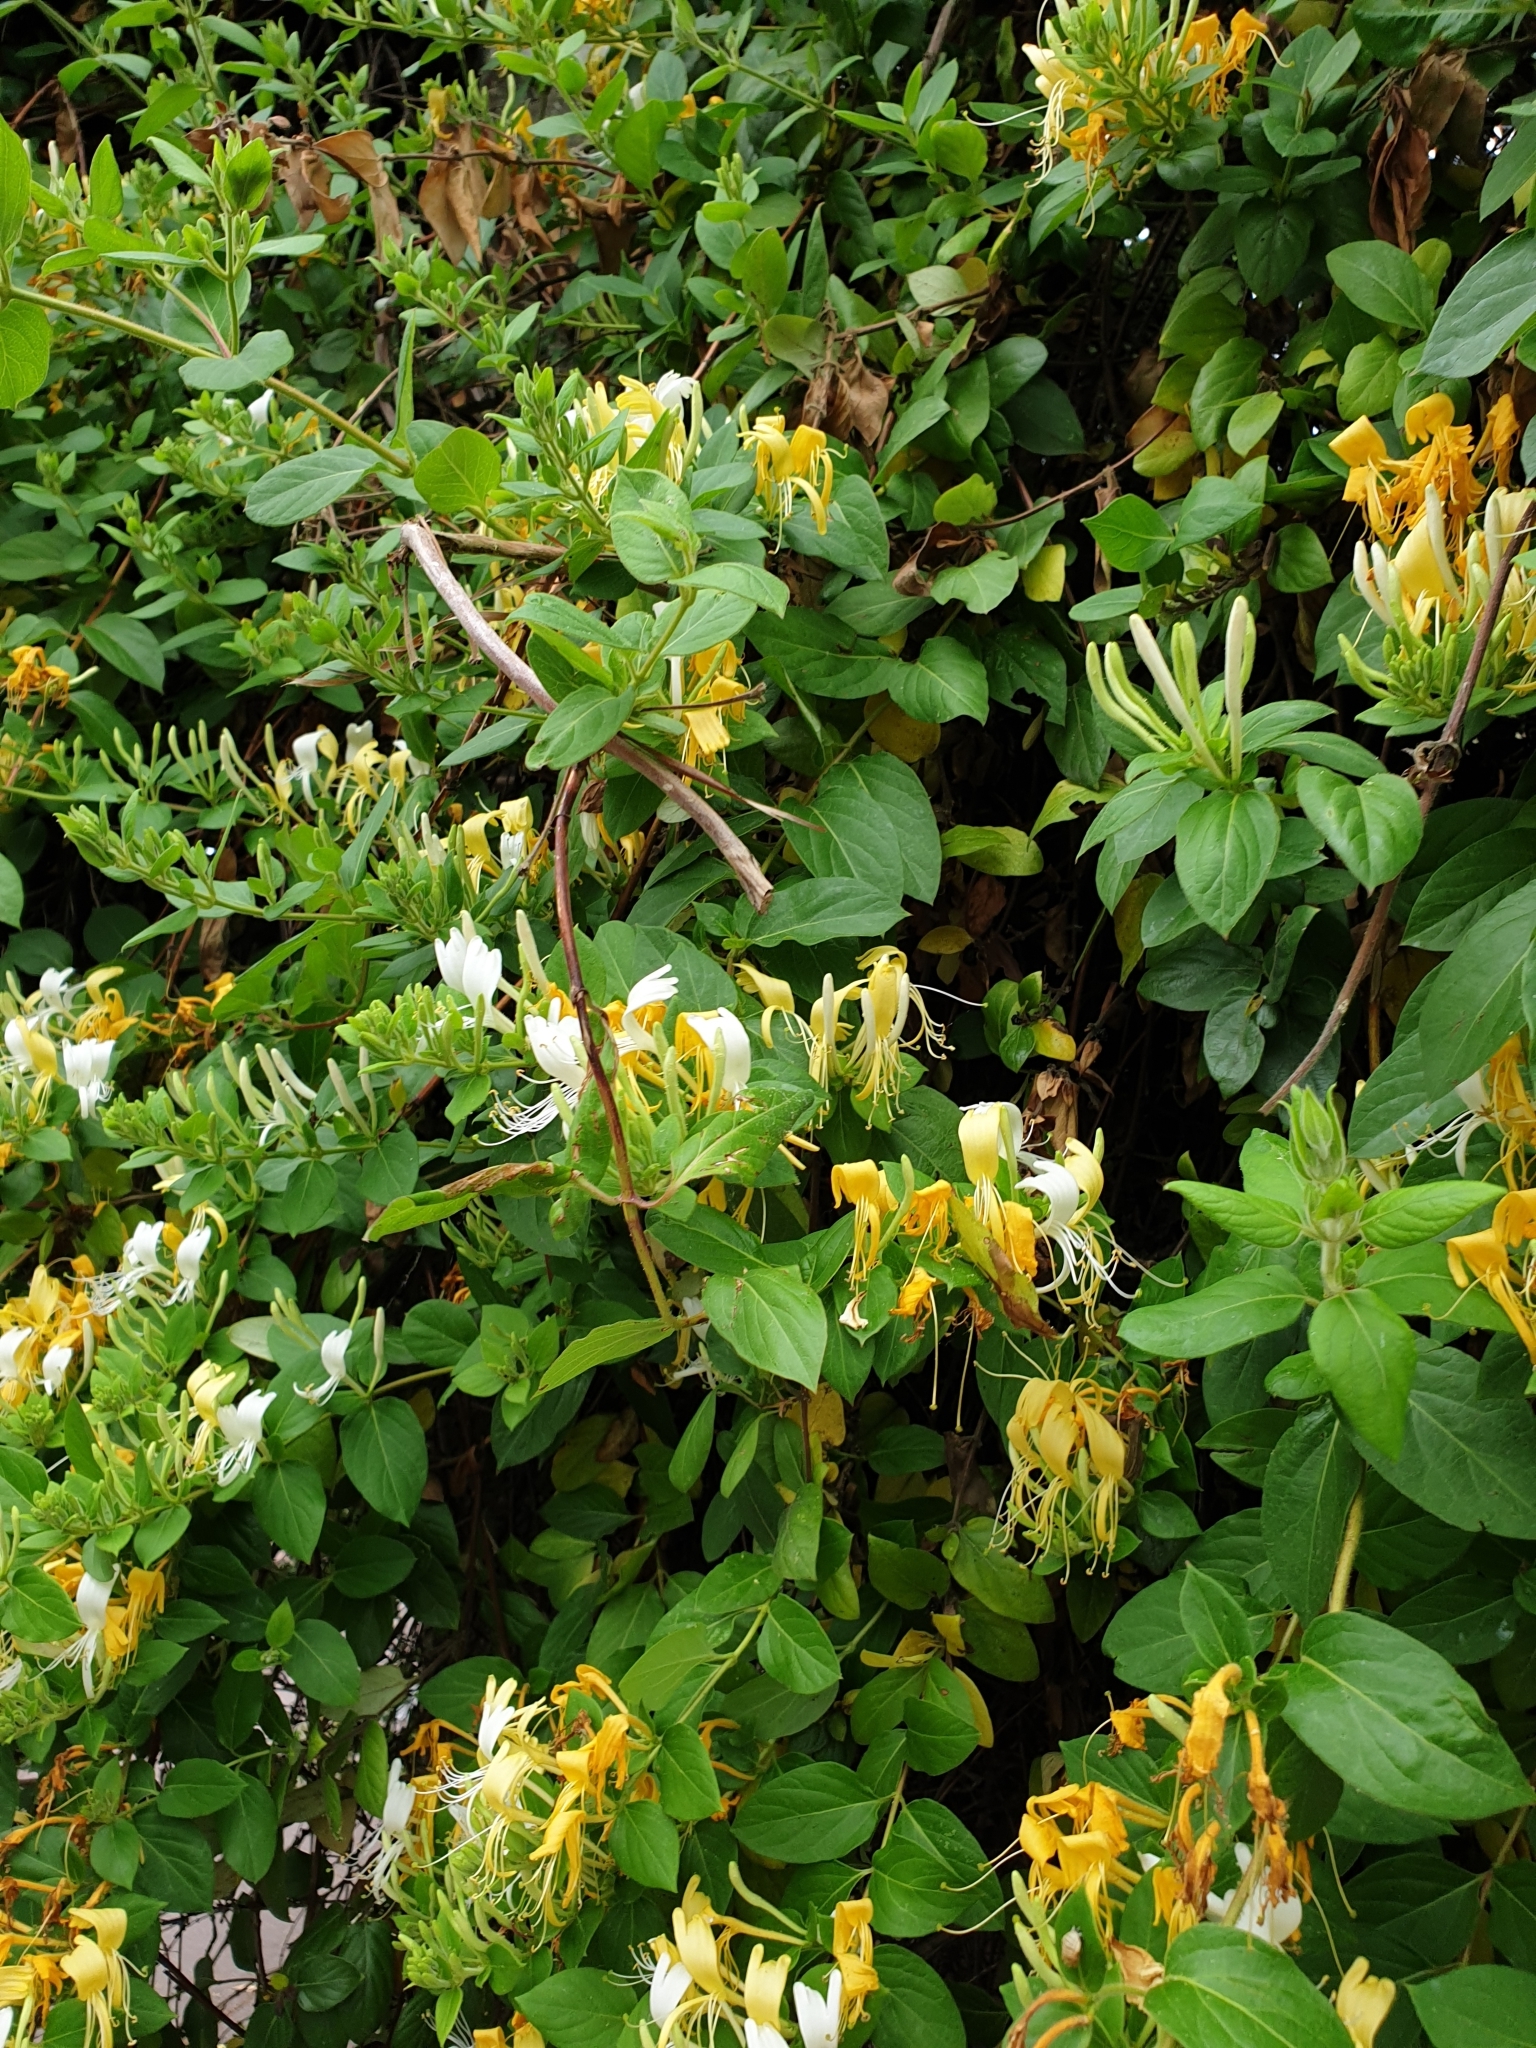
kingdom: Plantae
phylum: Tracheophyta
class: Magnoliopsida
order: Dipsacales
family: Caprifoliaceae
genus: Lonicera
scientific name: Lonicera japonica
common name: Japanese honeysuckle
